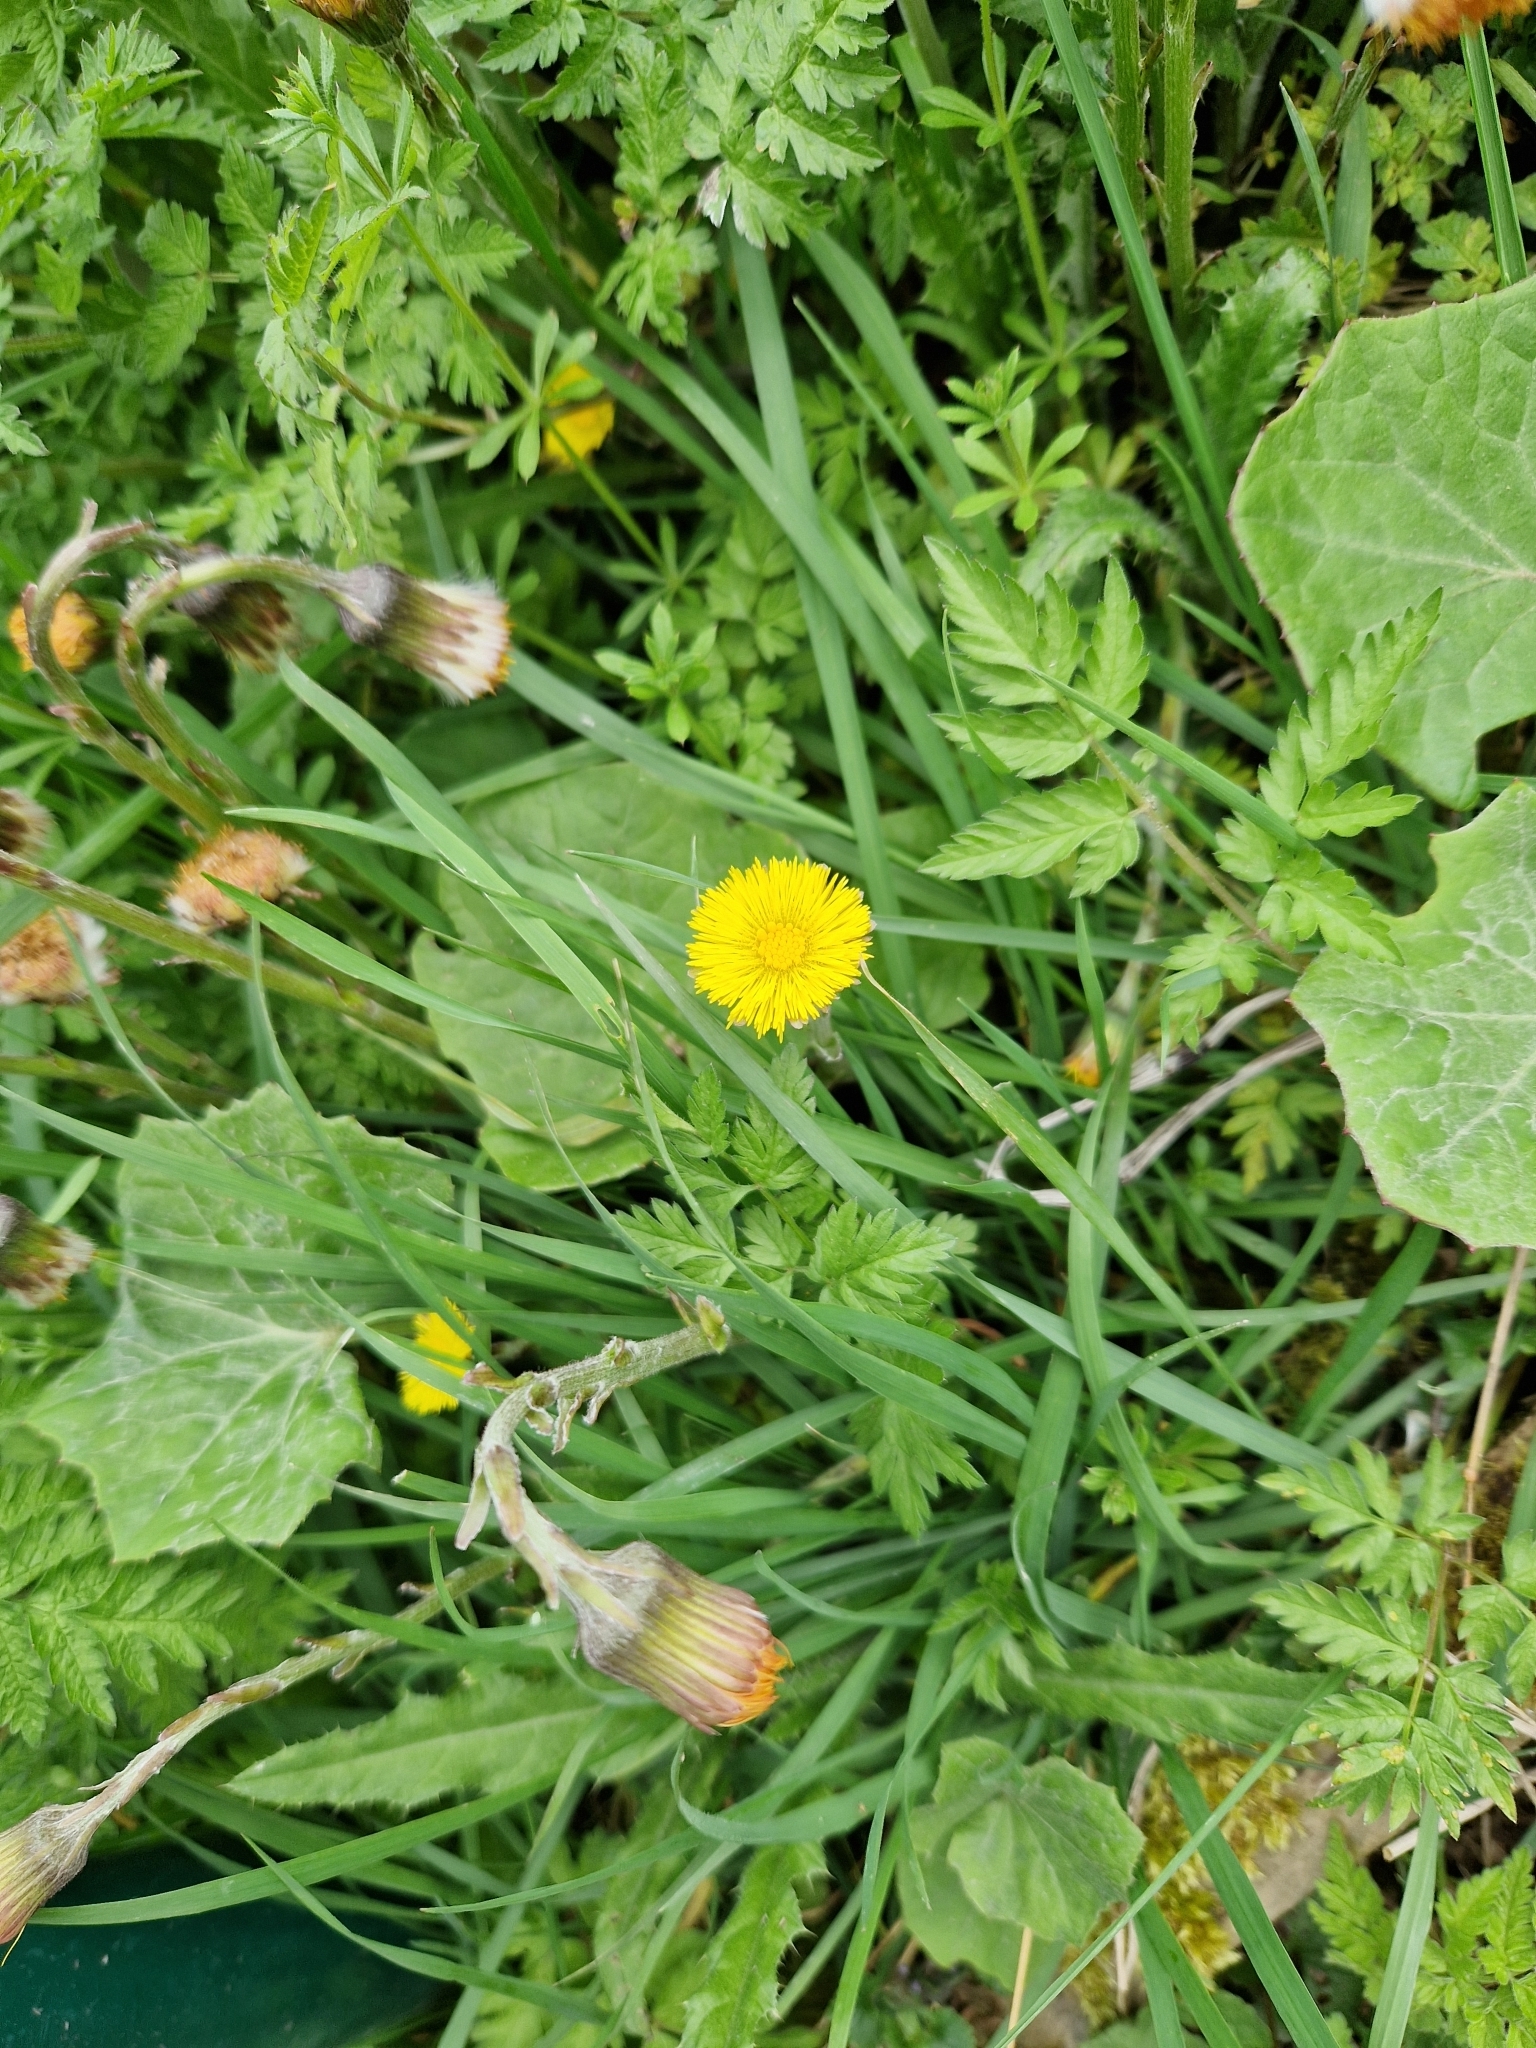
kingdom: Plantae
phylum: Tracheophyta
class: Magnoliopsida
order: Asterales
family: Asteraceae
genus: Tussilago
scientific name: Tussilago farfara
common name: Coltsfoot
